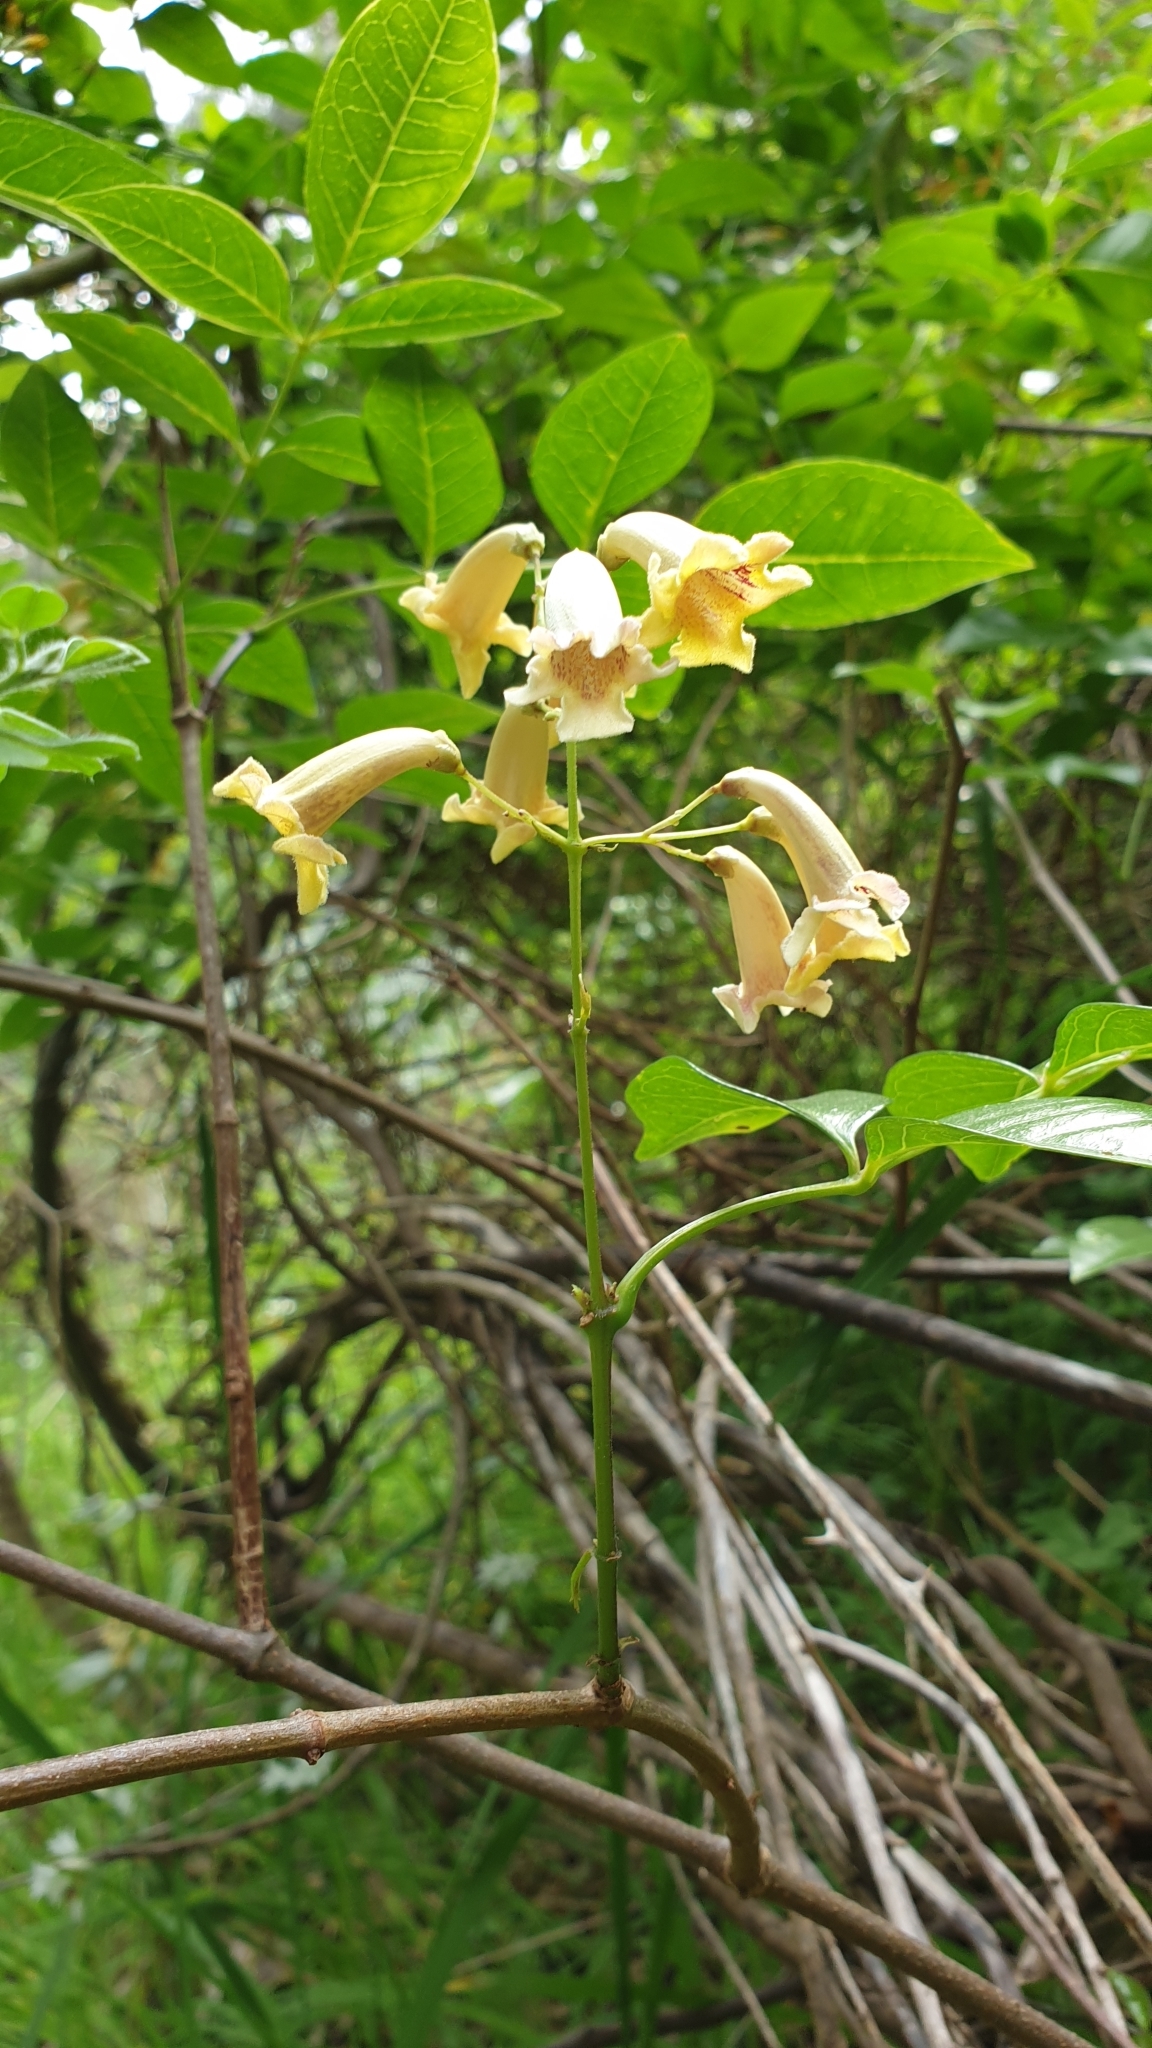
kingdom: Plantae
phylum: Tracheophyta
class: Magnoliopsida
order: Lamiales
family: Bignoniaceae
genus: Pandorea
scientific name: Pandorea pandorana
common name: Wonga-wonga-vine
